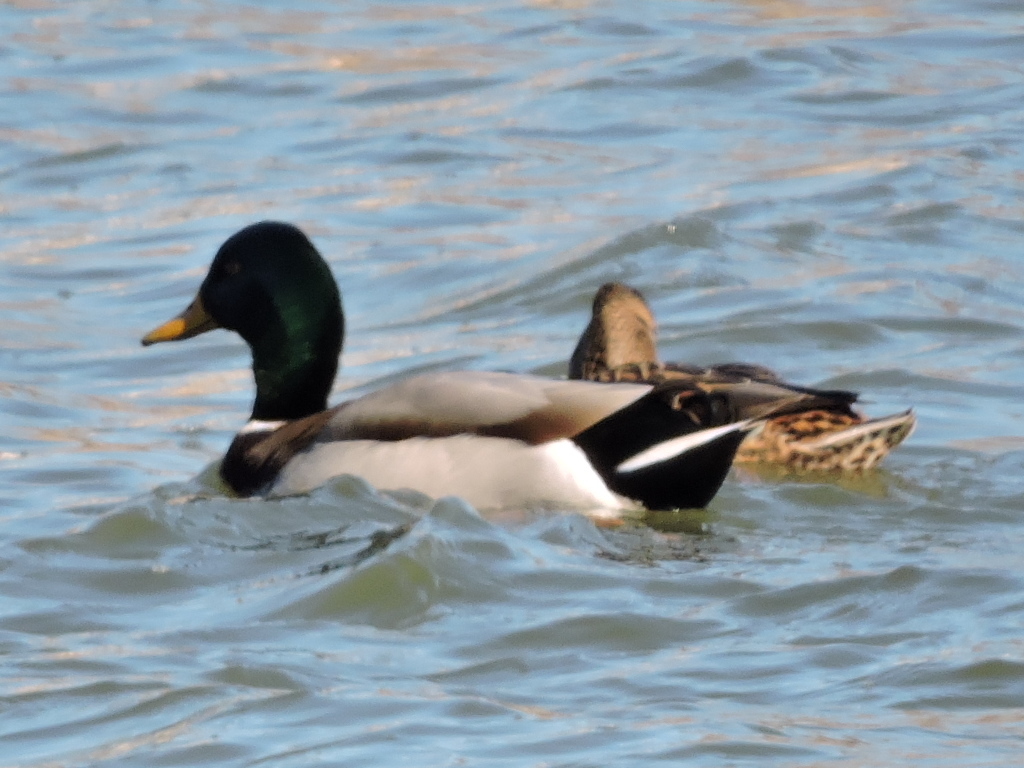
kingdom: Animalia
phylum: Chordata
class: Aves
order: Anseriformes
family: Anatidae
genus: Anas
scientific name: Anas platyrhynchos
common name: Mallard
